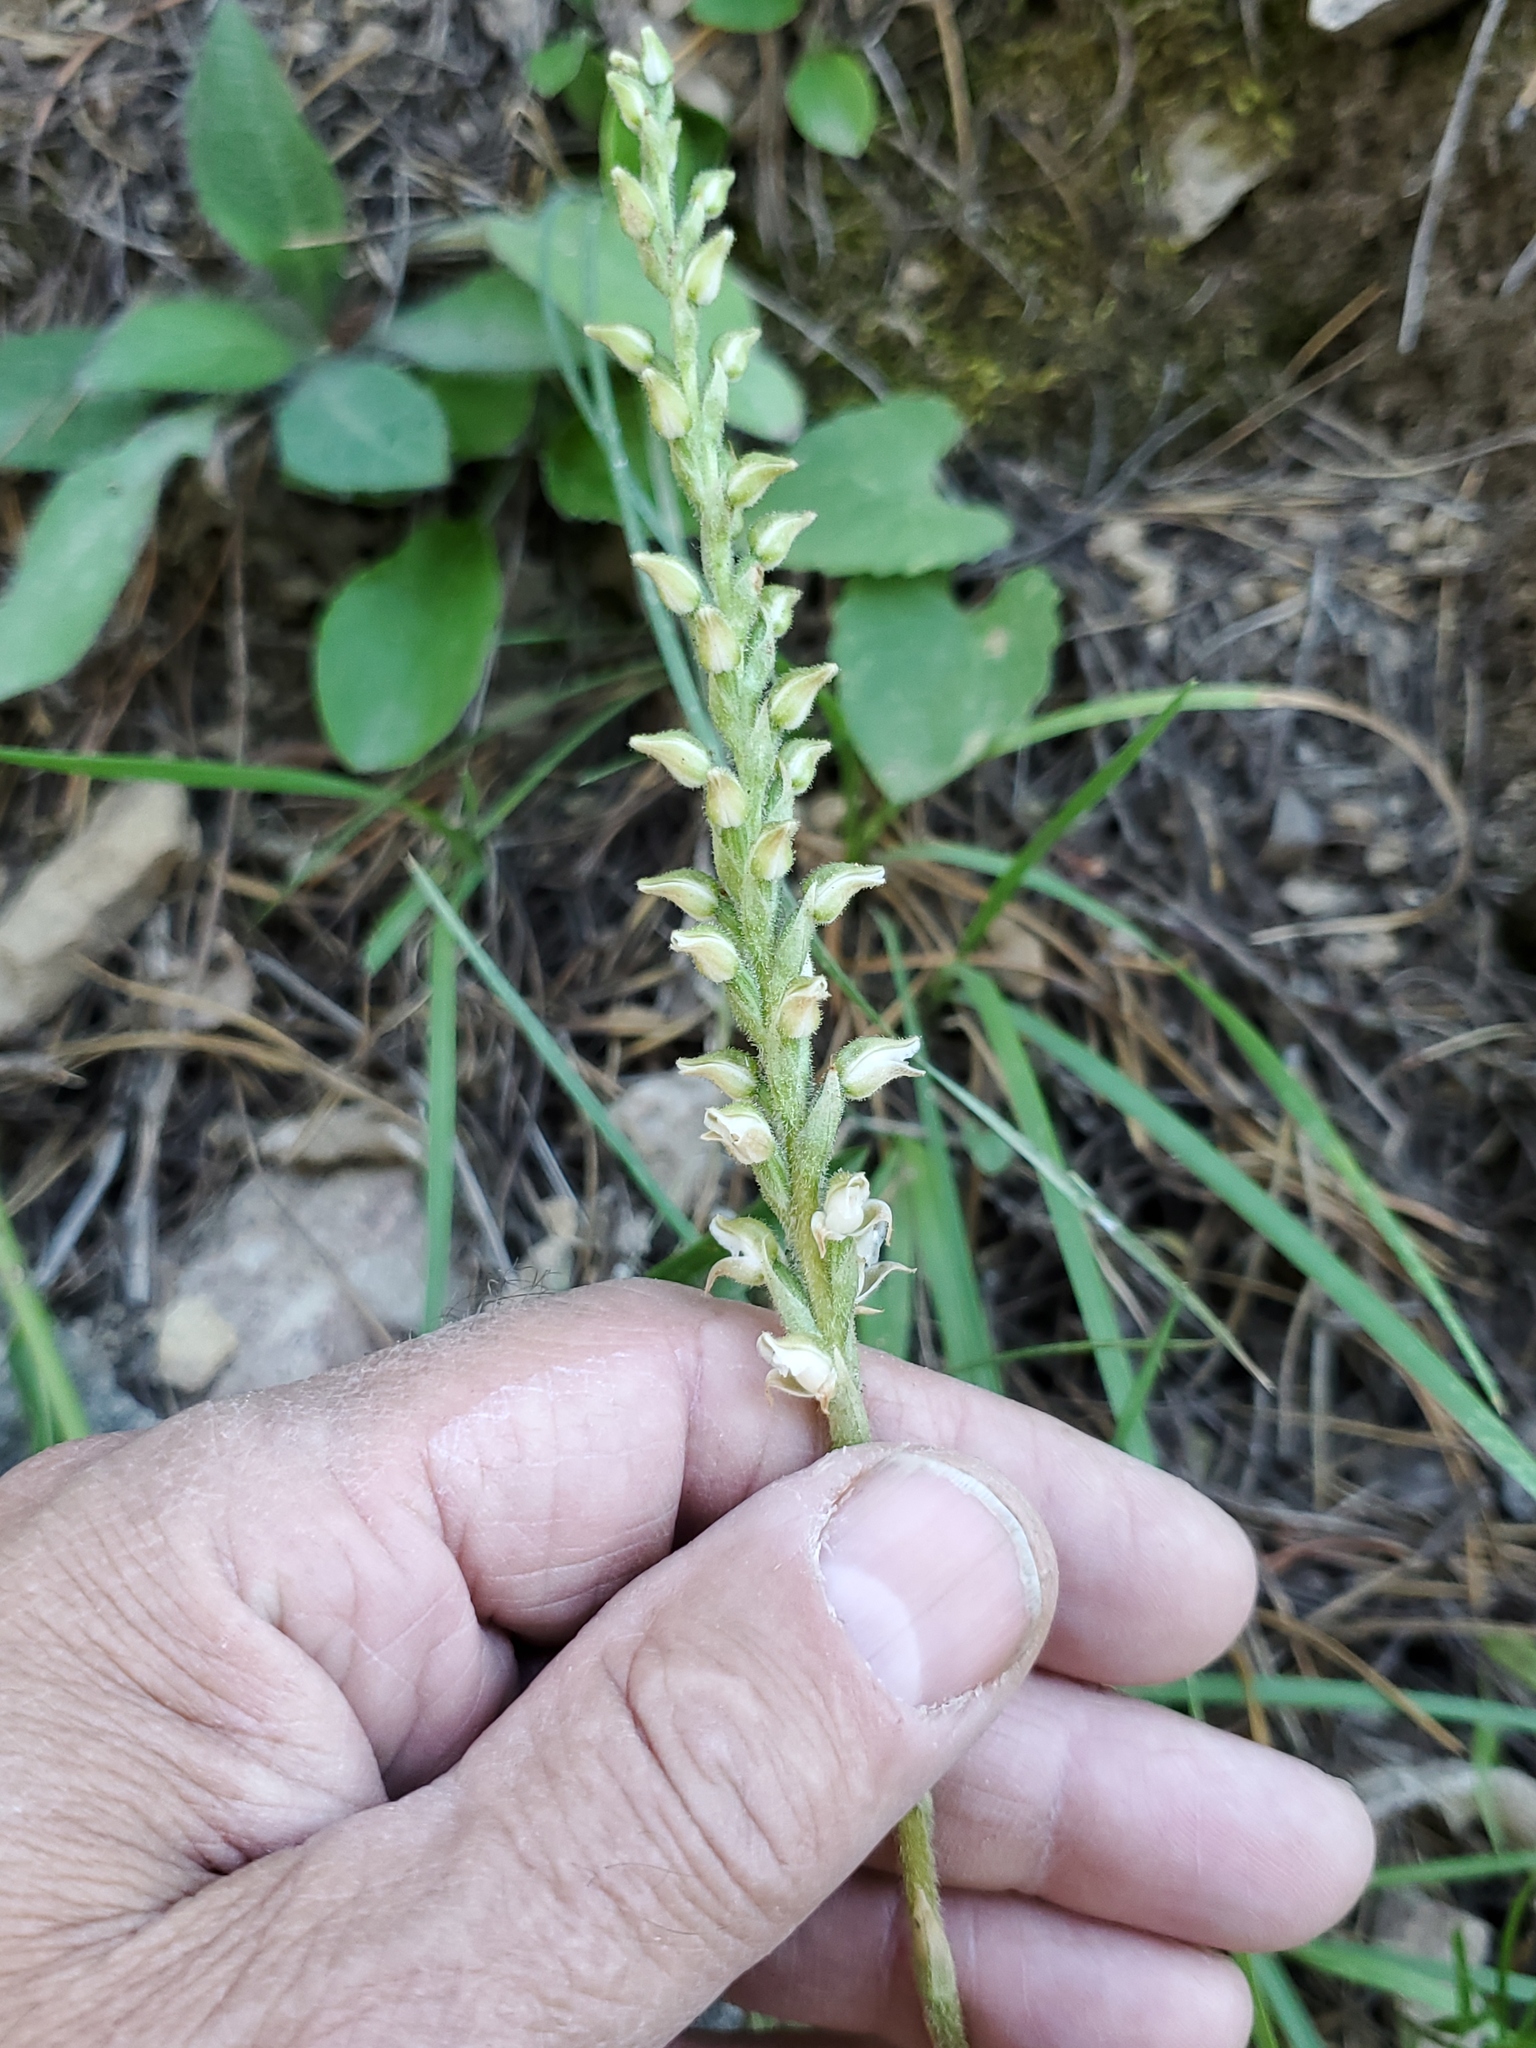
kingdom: Plantae
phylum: Tracheophyta
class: Liliopsida
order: Asparagales
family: Orchidaceae
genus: Goodyera
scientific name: Goodyera oblongifolia
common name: Giant rattlesnake-plantain
